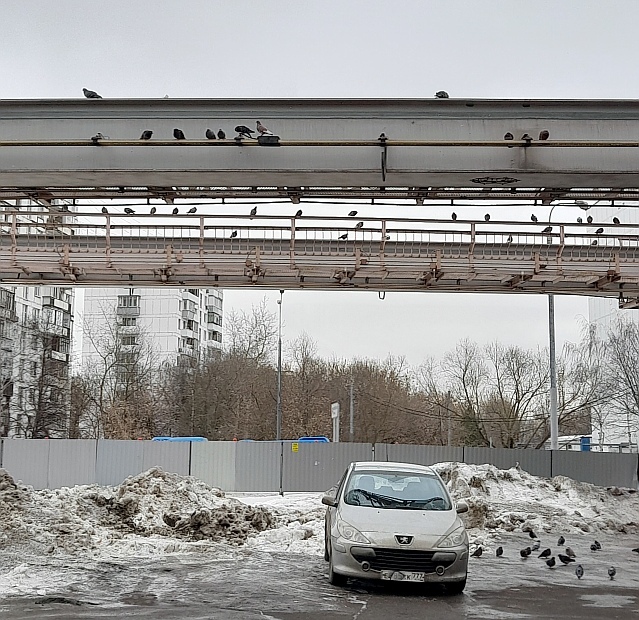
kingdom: Animalia
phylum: Chordata
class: Aves
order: Columbiformes
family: Columbidae
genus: Columba
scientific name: Columba livia
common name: Rock pigeon
